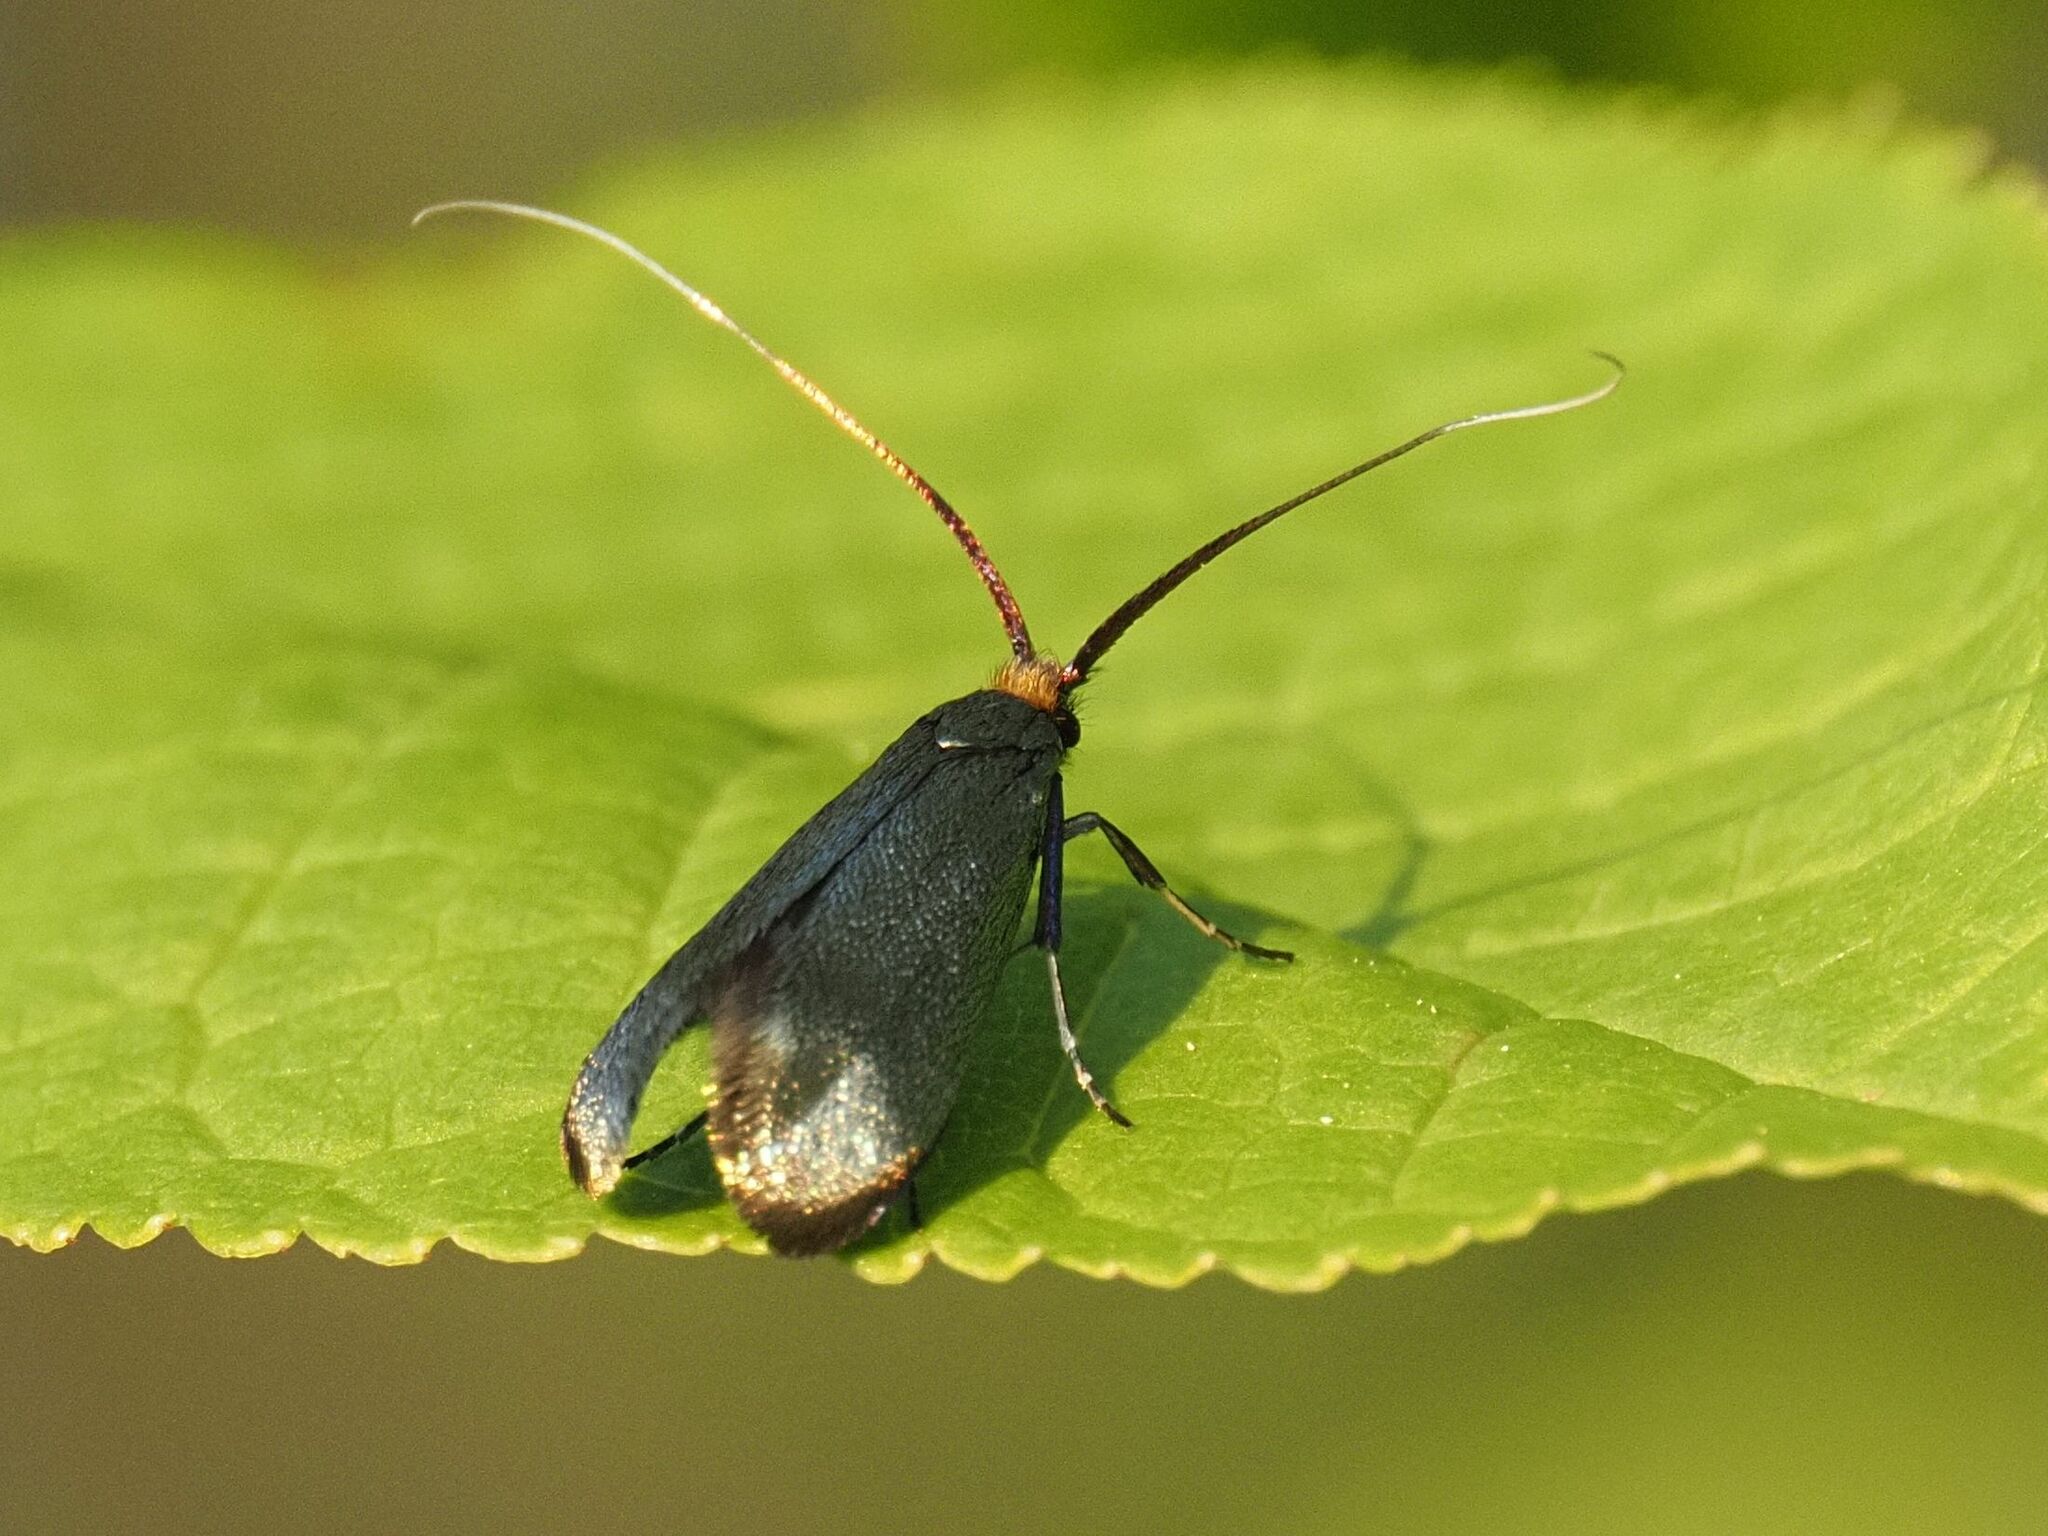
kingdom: Animalia
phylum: Arthropoda
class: Insecta
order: Lepidoptera
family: Adelidae
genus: Adela
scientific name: Adela viridella
